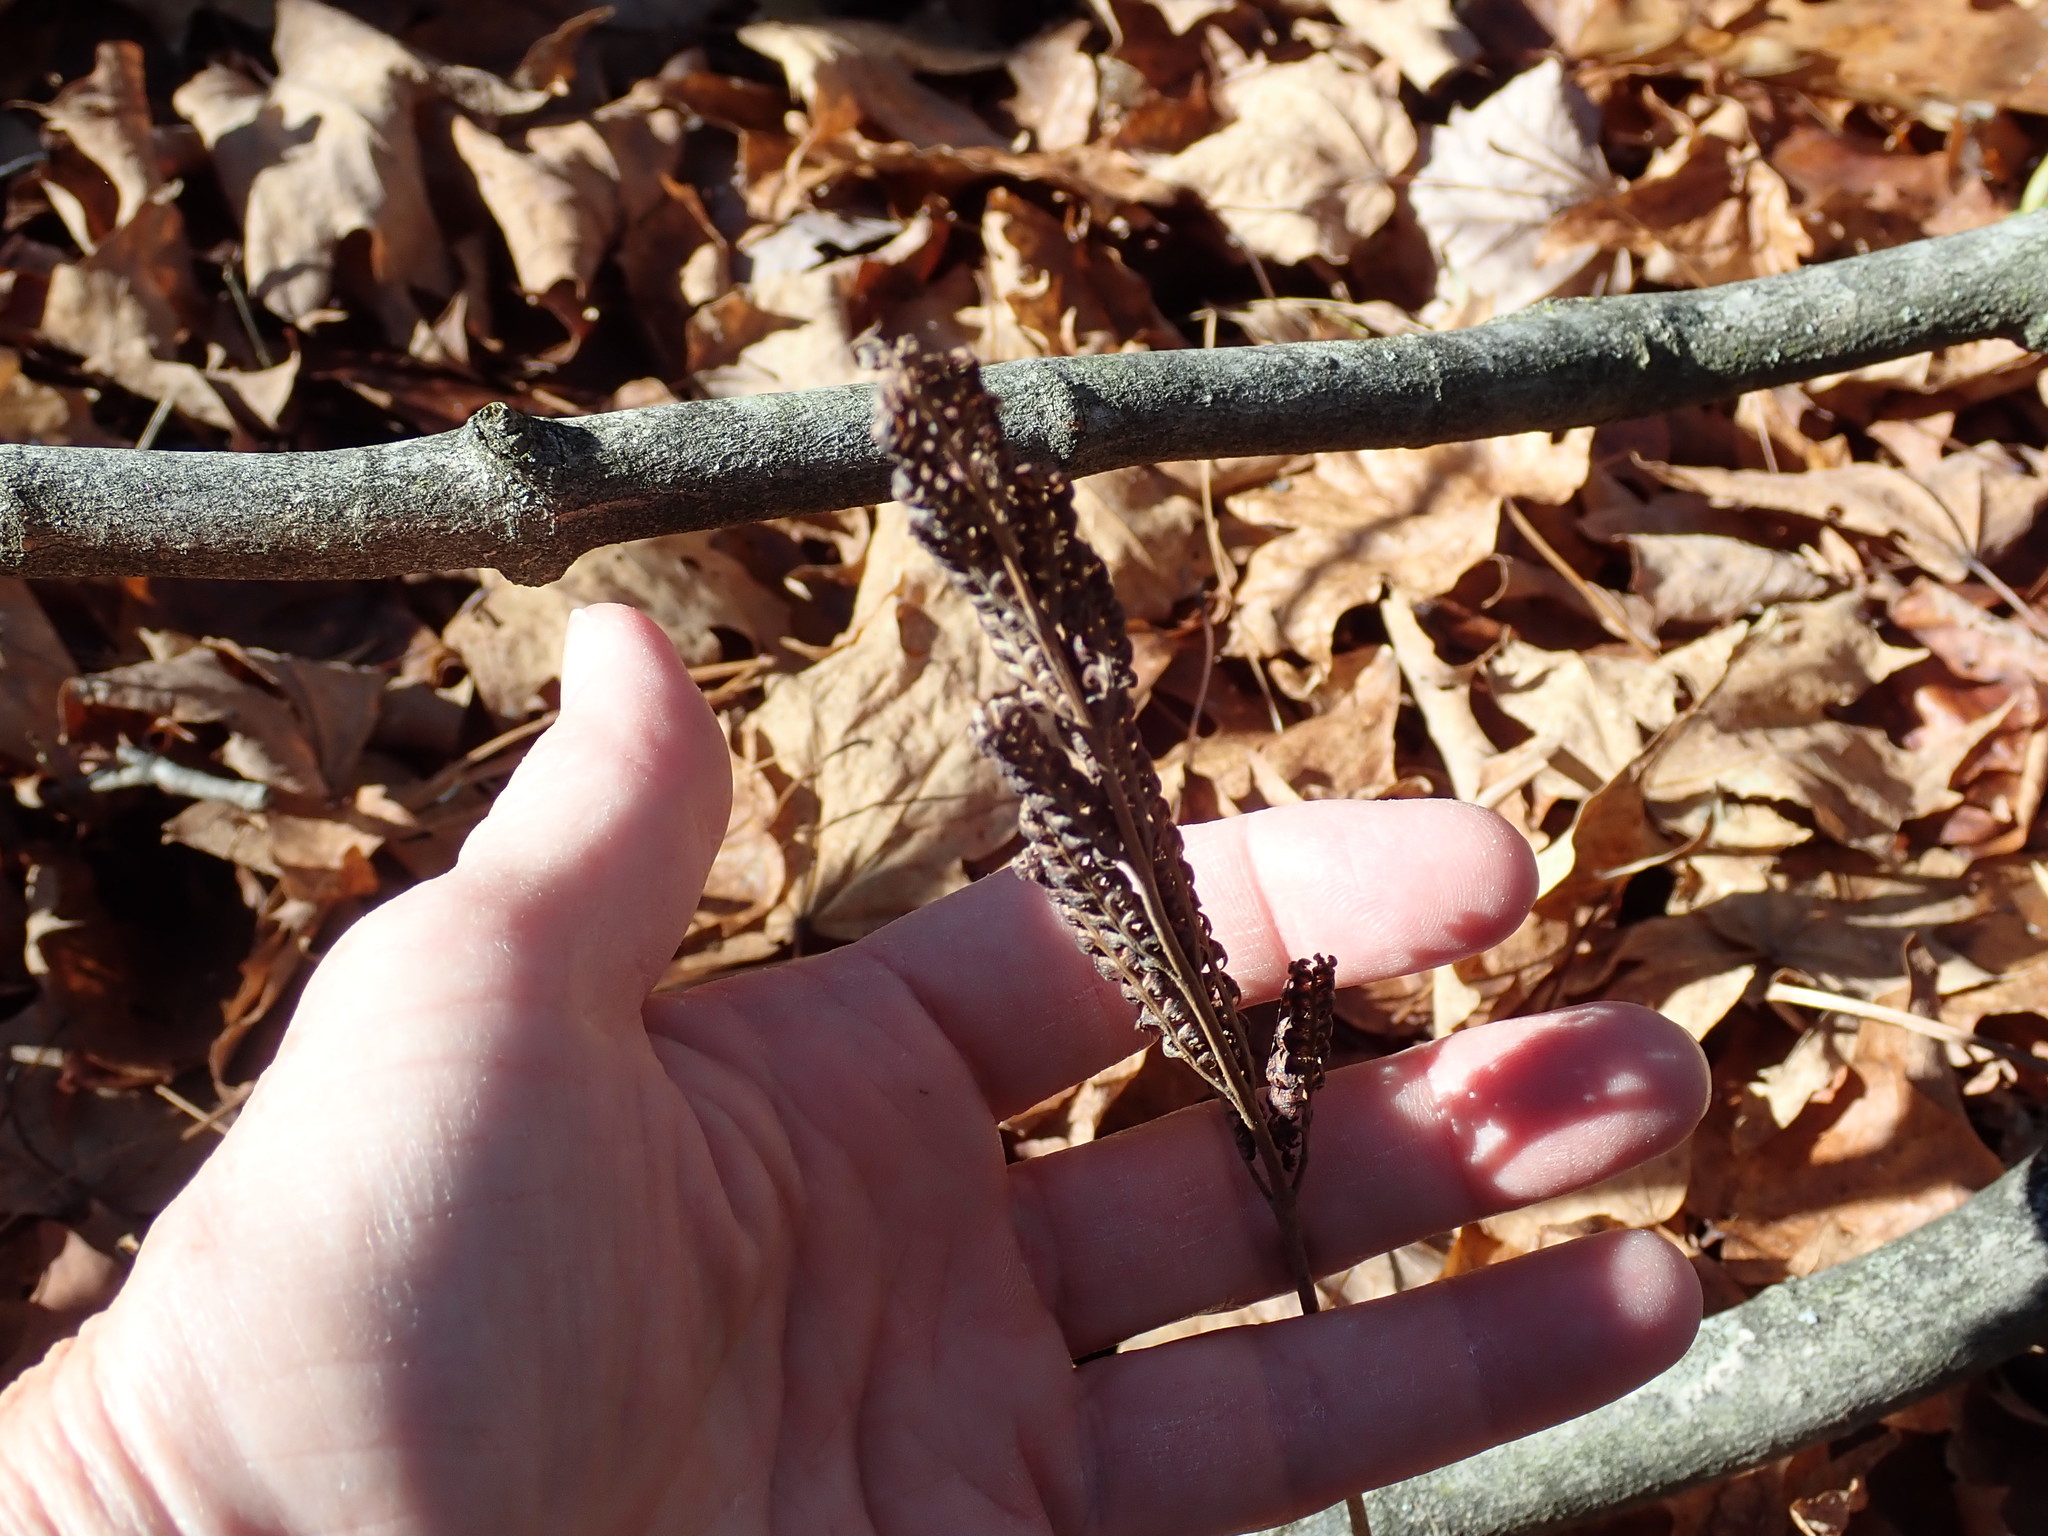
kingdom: Plantae
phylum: Tracheophyta
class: Polypodiopsida
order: Polypodiales
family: Onocleaceae
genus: Onoclea
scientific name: Onoclea sensibilis
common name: Sensitive fern
